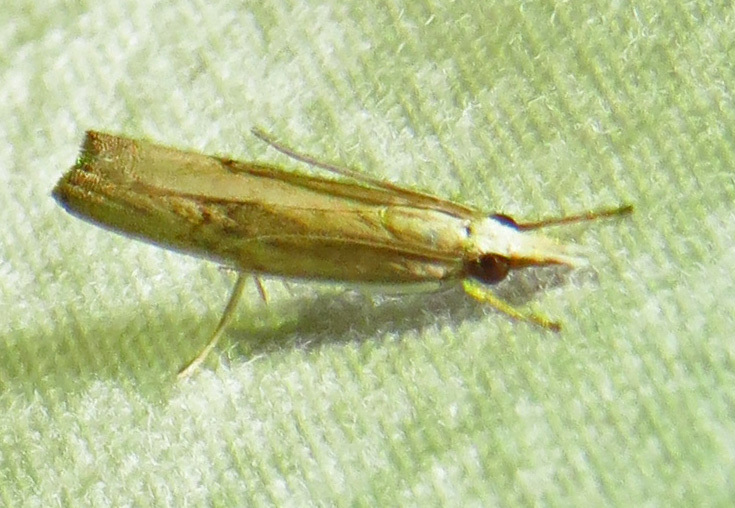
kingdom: Animalia
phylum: Arthropoda
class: Insecta
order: Lepidoptera
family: Crambidae
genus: Parapediasia
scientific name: Parapediasia teterellus
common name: Bluegrass webworm moth
